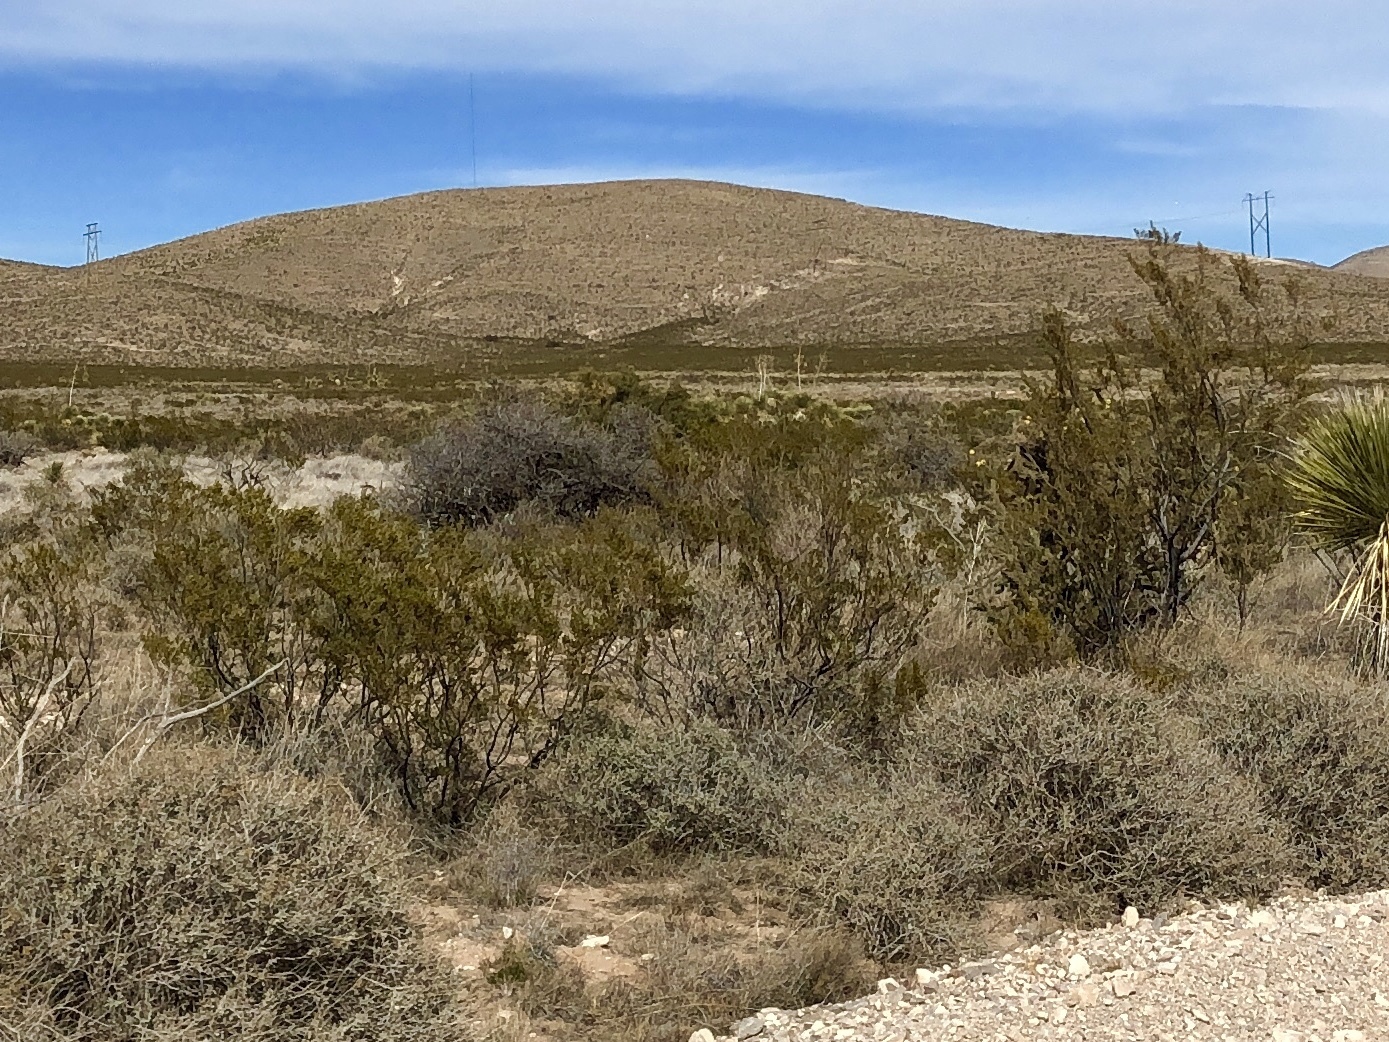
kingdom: Plantae
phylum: Tracheophyta
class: Magnoliopsida
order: Zygophyllales
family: Zygophyllaceae
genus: Larrea
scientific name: Larrea tridentata
